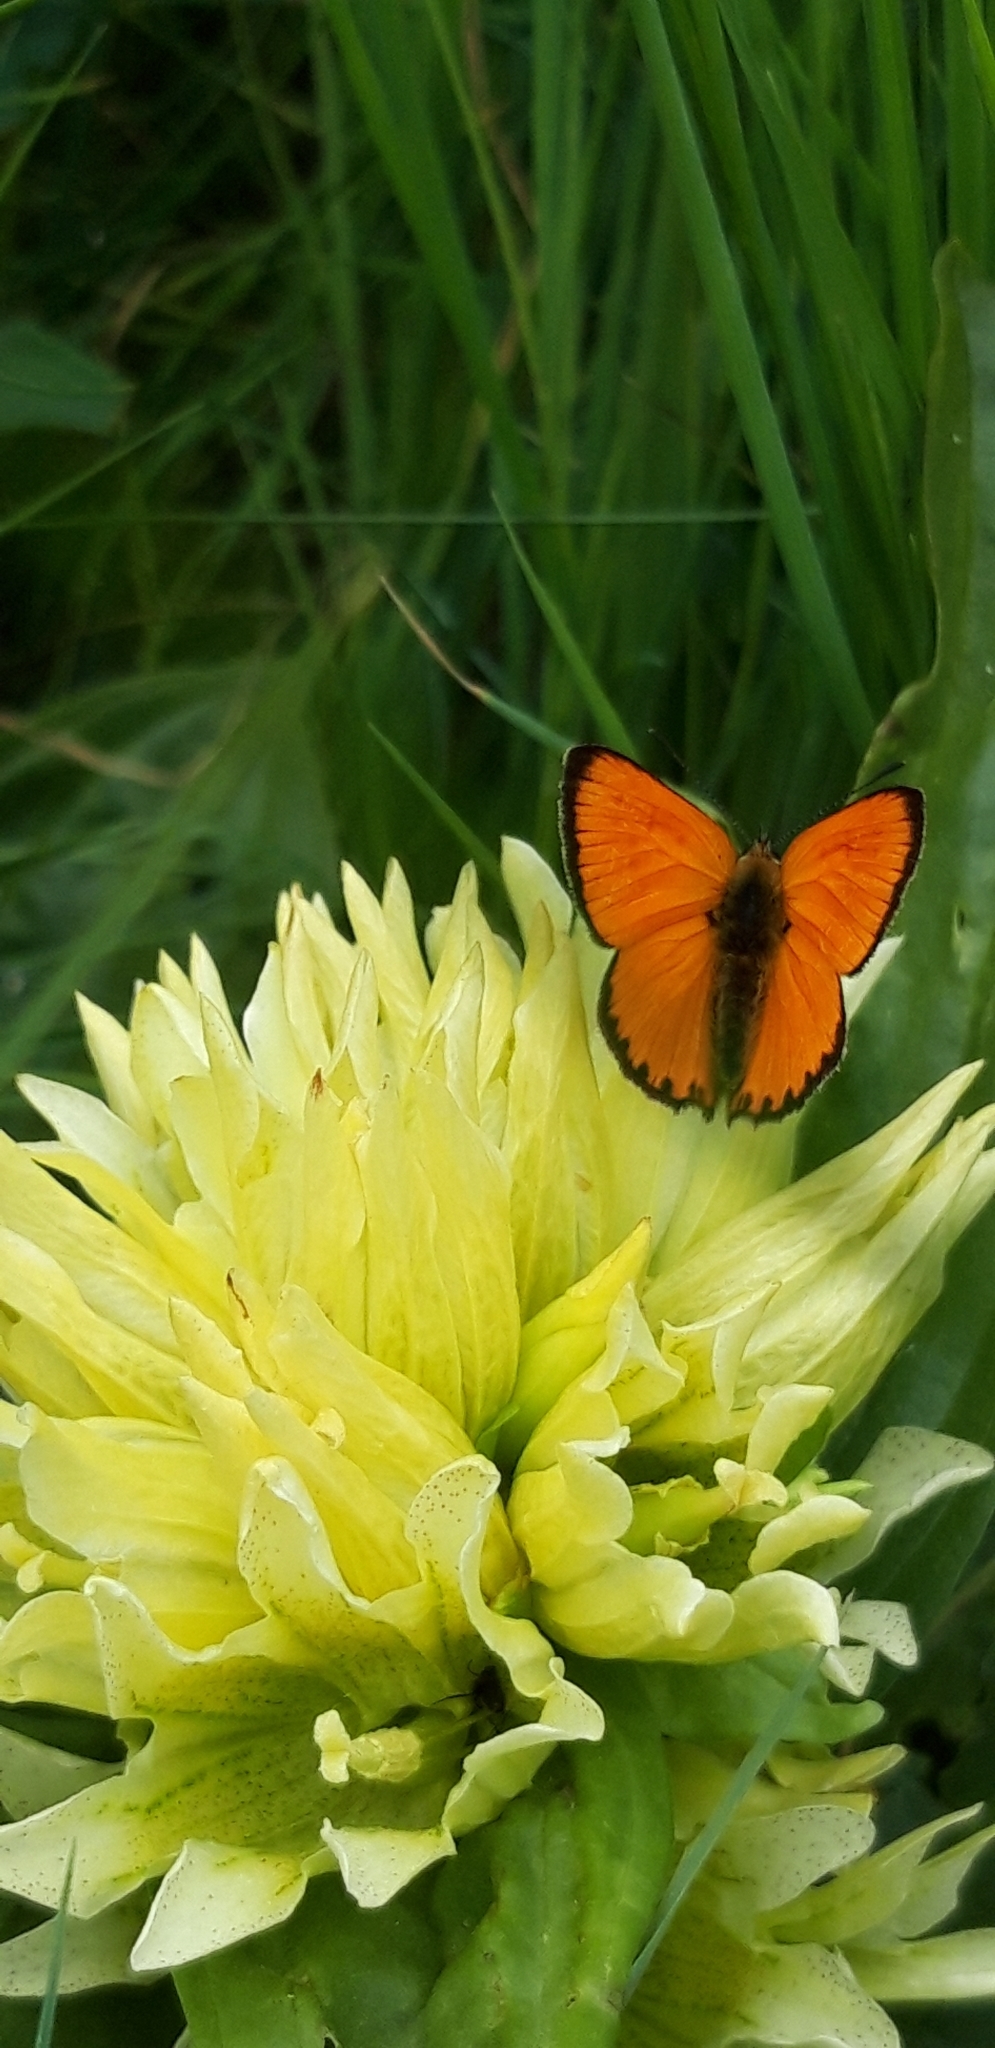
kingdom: Animalia
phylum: Arthropoda
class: Insecta
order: Lepidoptera
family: Lycaenidae
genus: Lycaena
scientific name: Lycaena virgaureae
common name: Scarce copper
